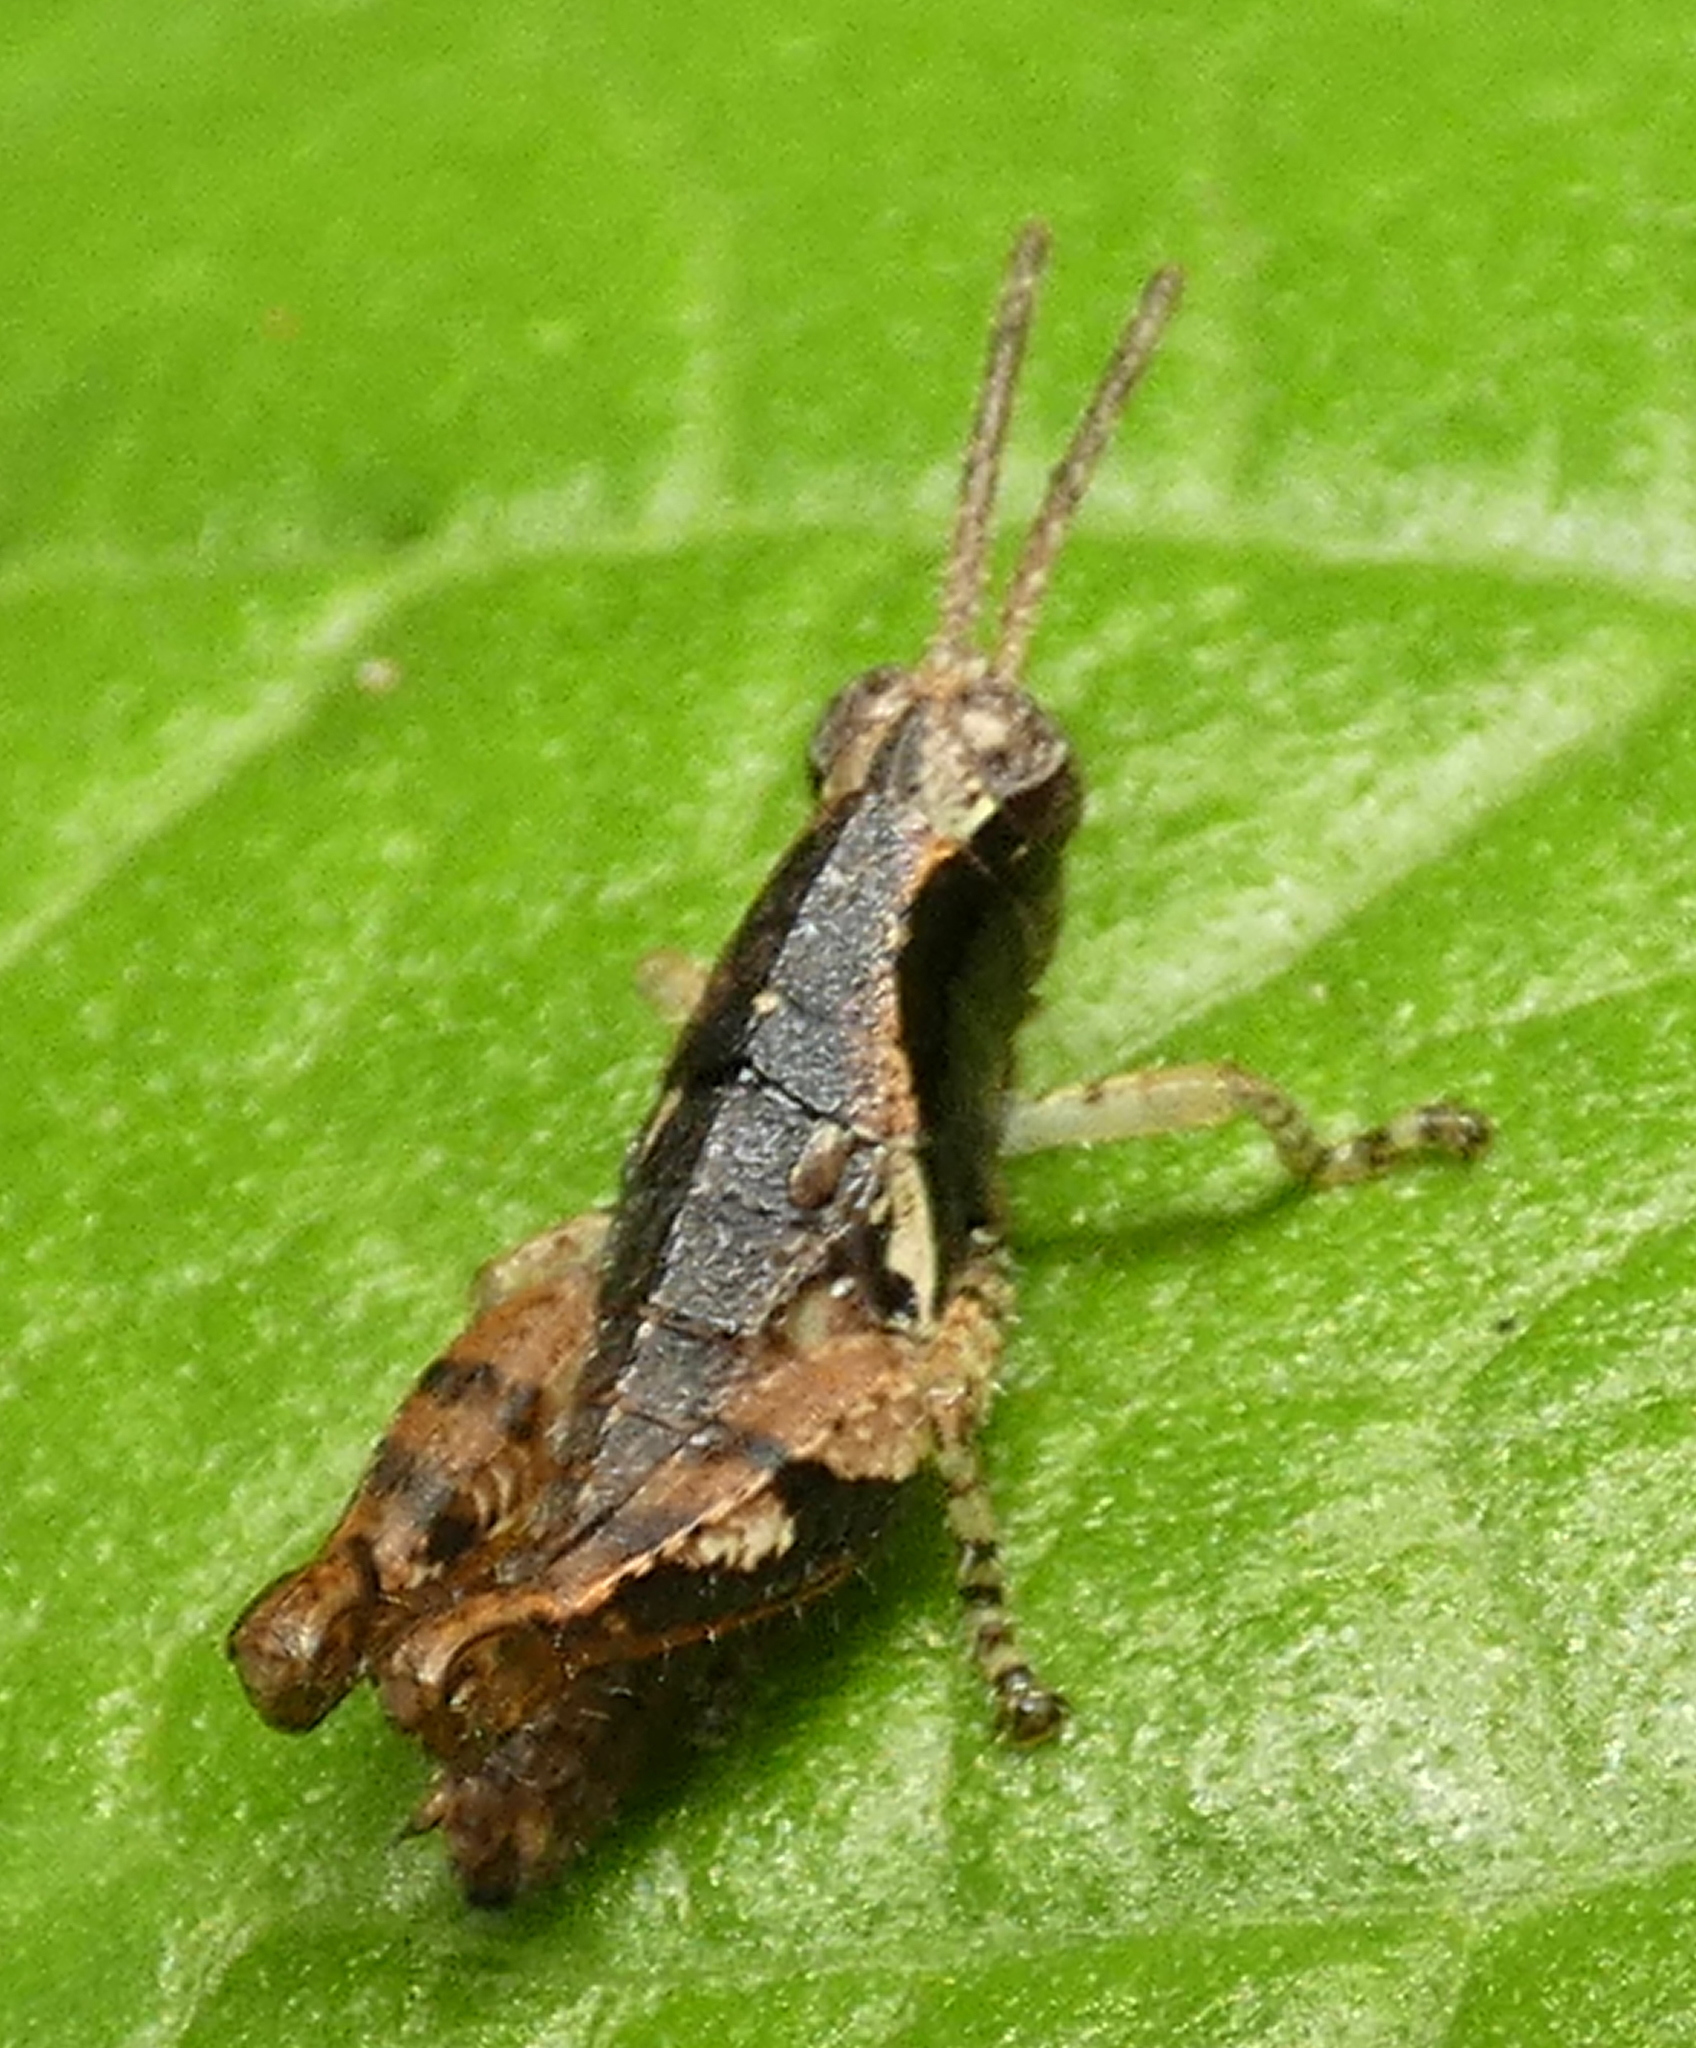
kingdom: Animalia
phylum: Arthropoda
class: Insecta
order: Orthoptera
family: Acrididae
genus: Eujivarus
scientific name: Eujivarus meridionalis
